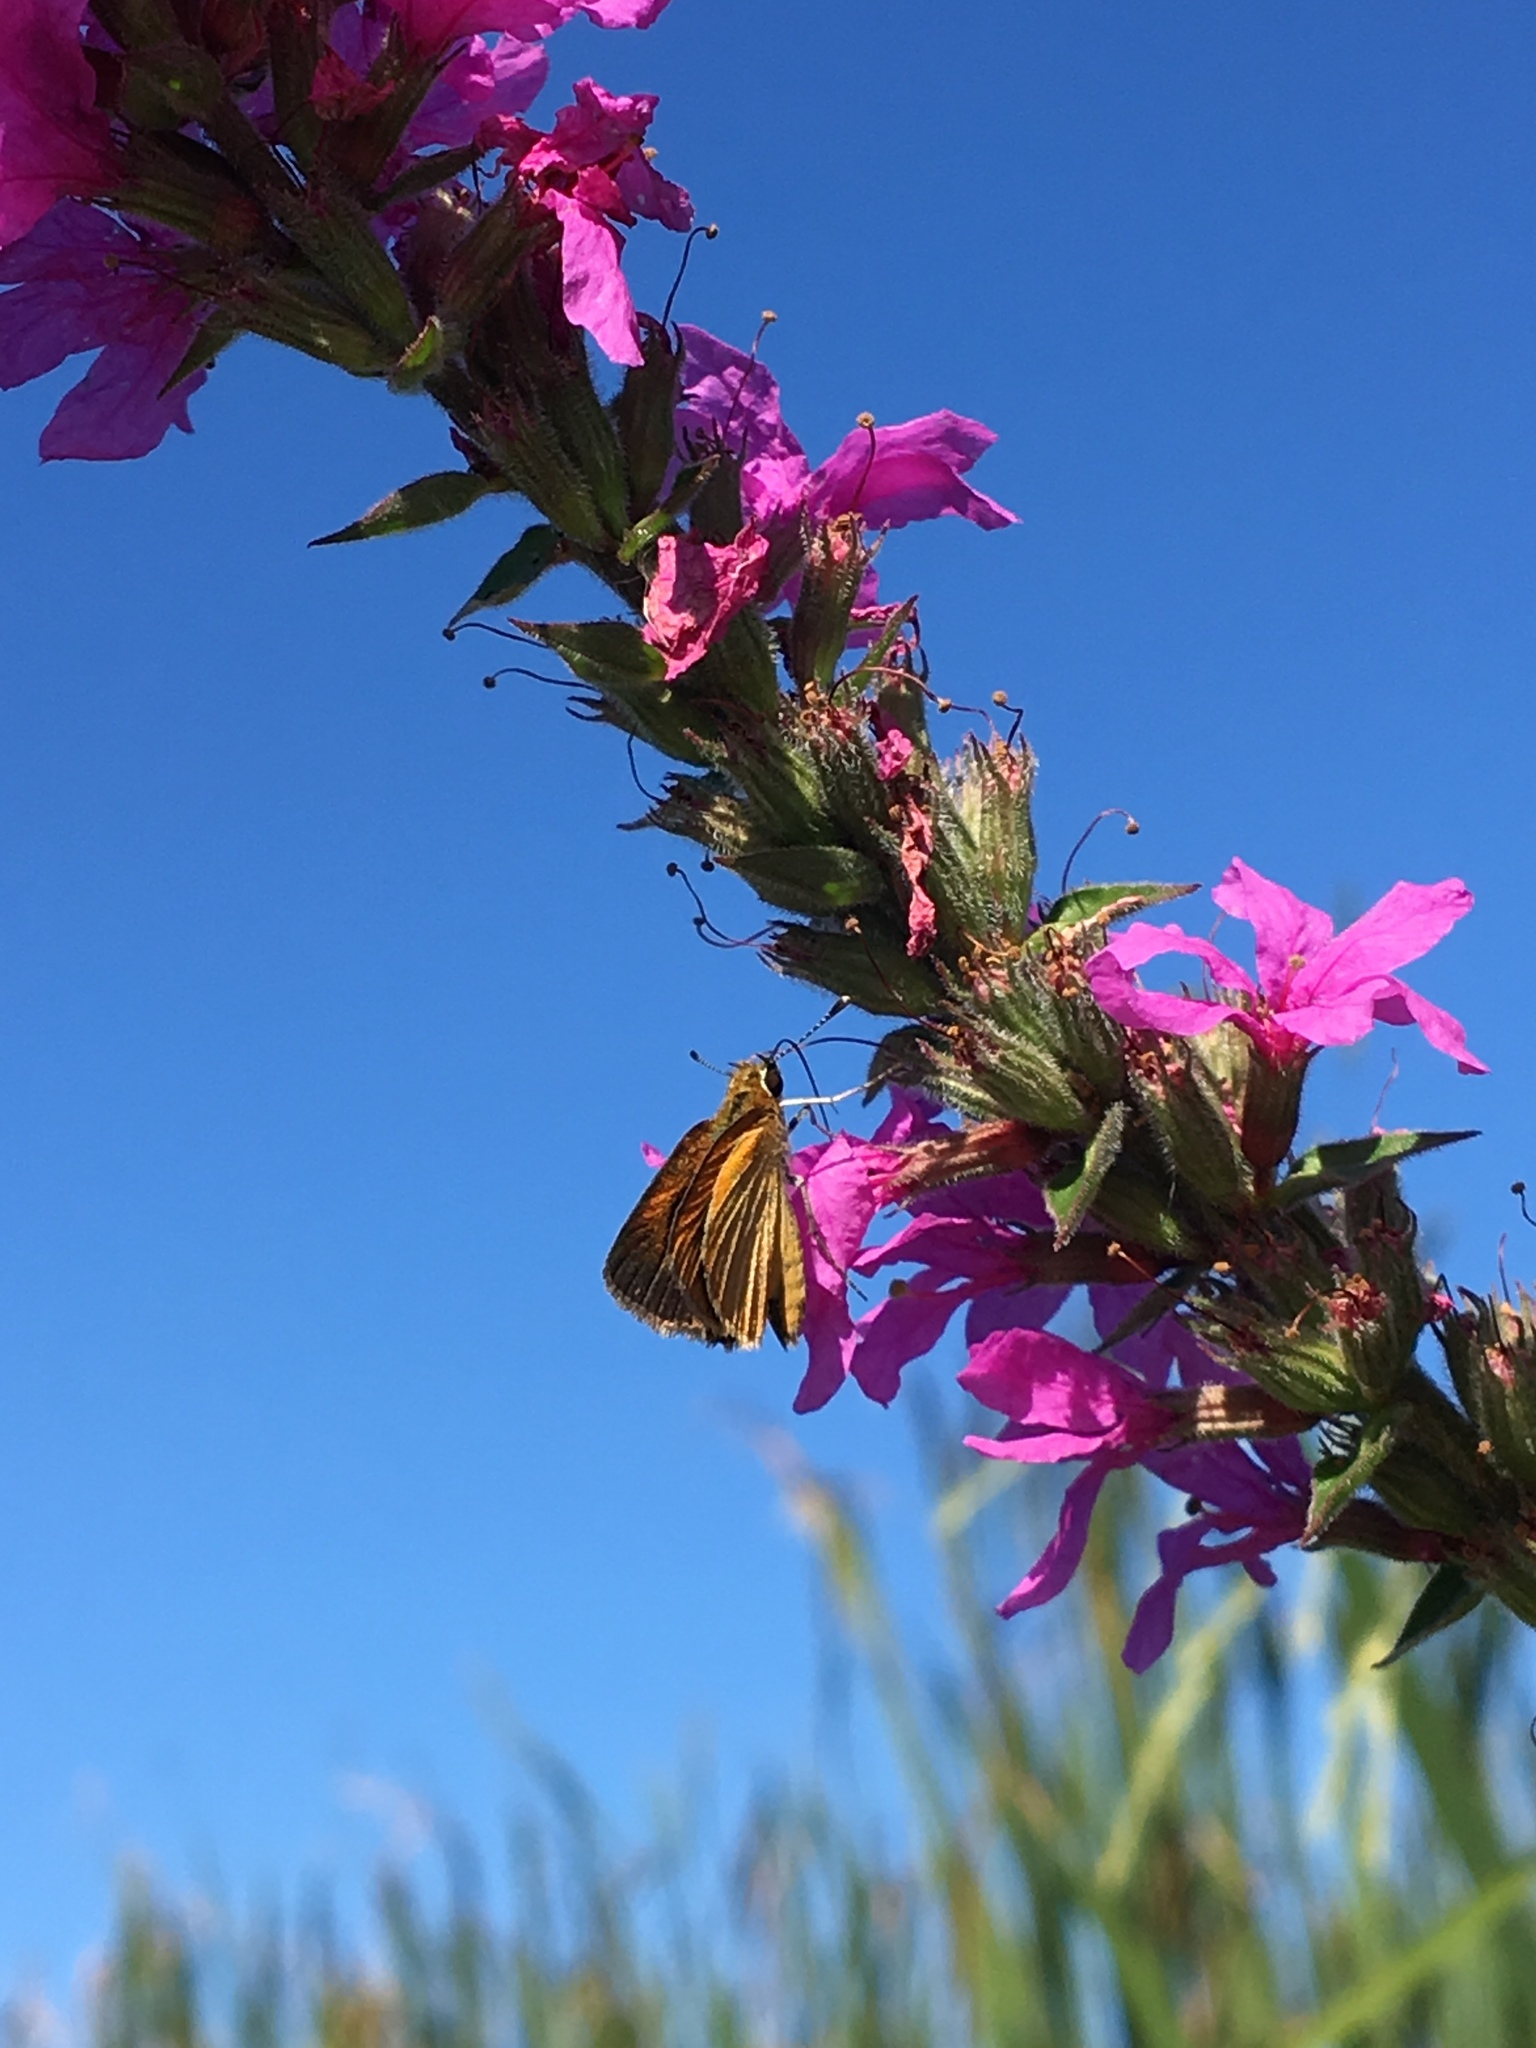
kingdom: Animalia
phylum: Arthropoda
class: Insecta
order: Lepidoptera
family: Hesperiidae
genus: Ancyloxypha
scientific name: Ancyloxypha numitor
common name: Least skipper
